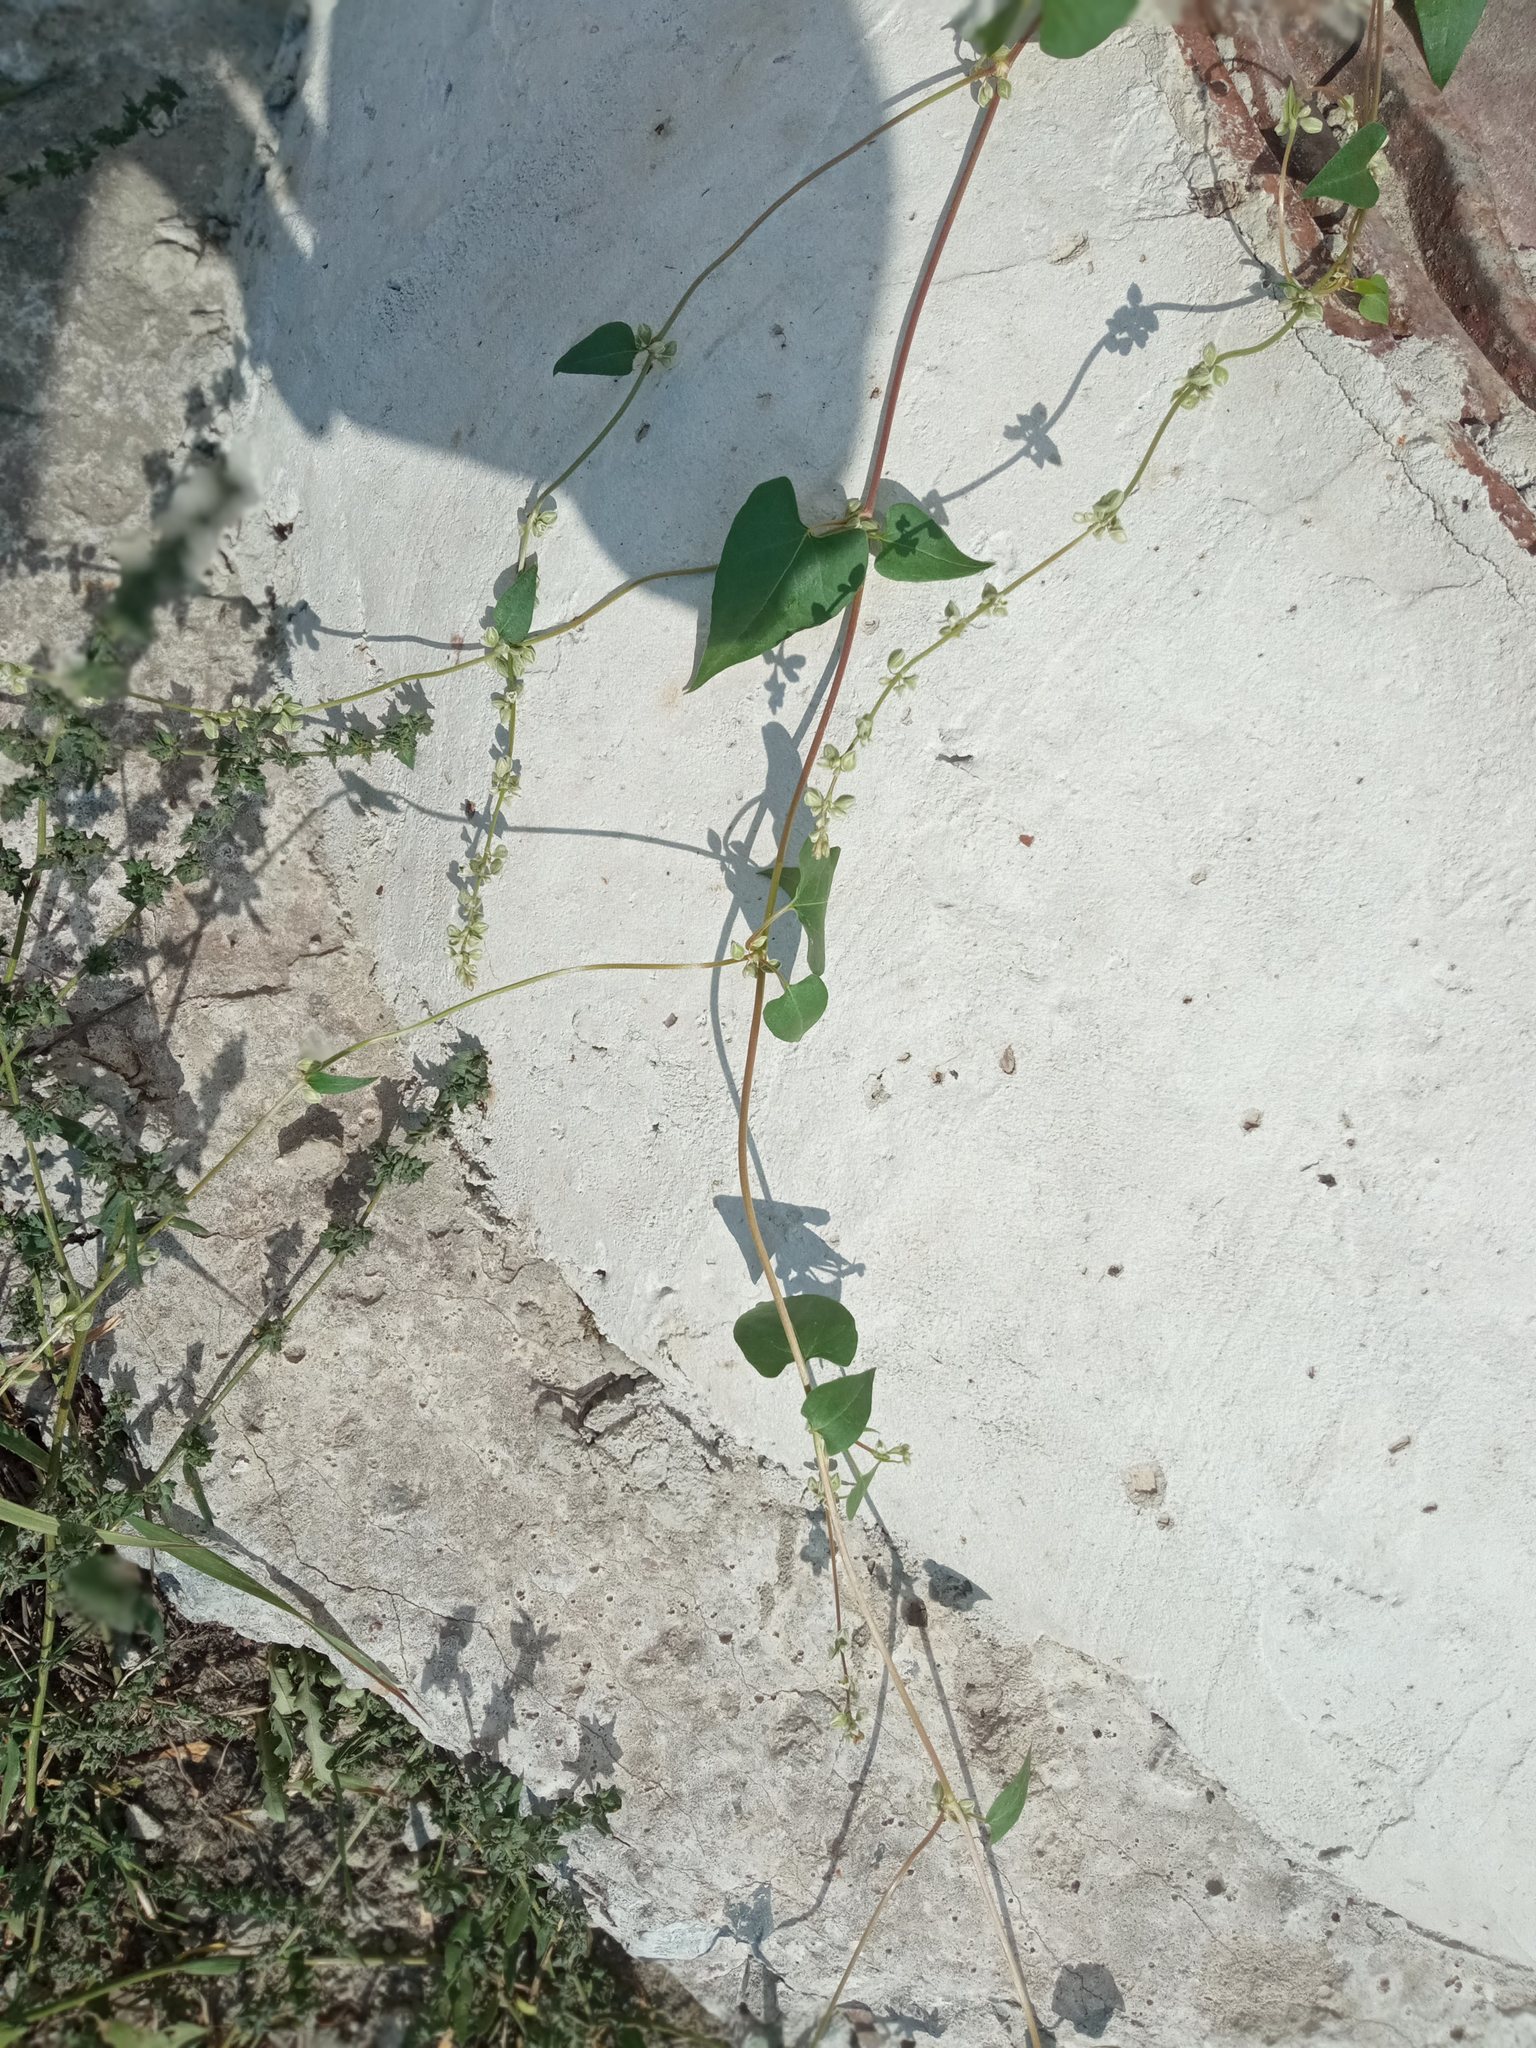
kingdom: Plantae
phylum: Tracheophyta
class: Magnoliopsida
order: Caryophyllales
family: Polygonaceae
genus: Fallopia
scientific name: Fallopia convolvulus
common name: Black bindweed
